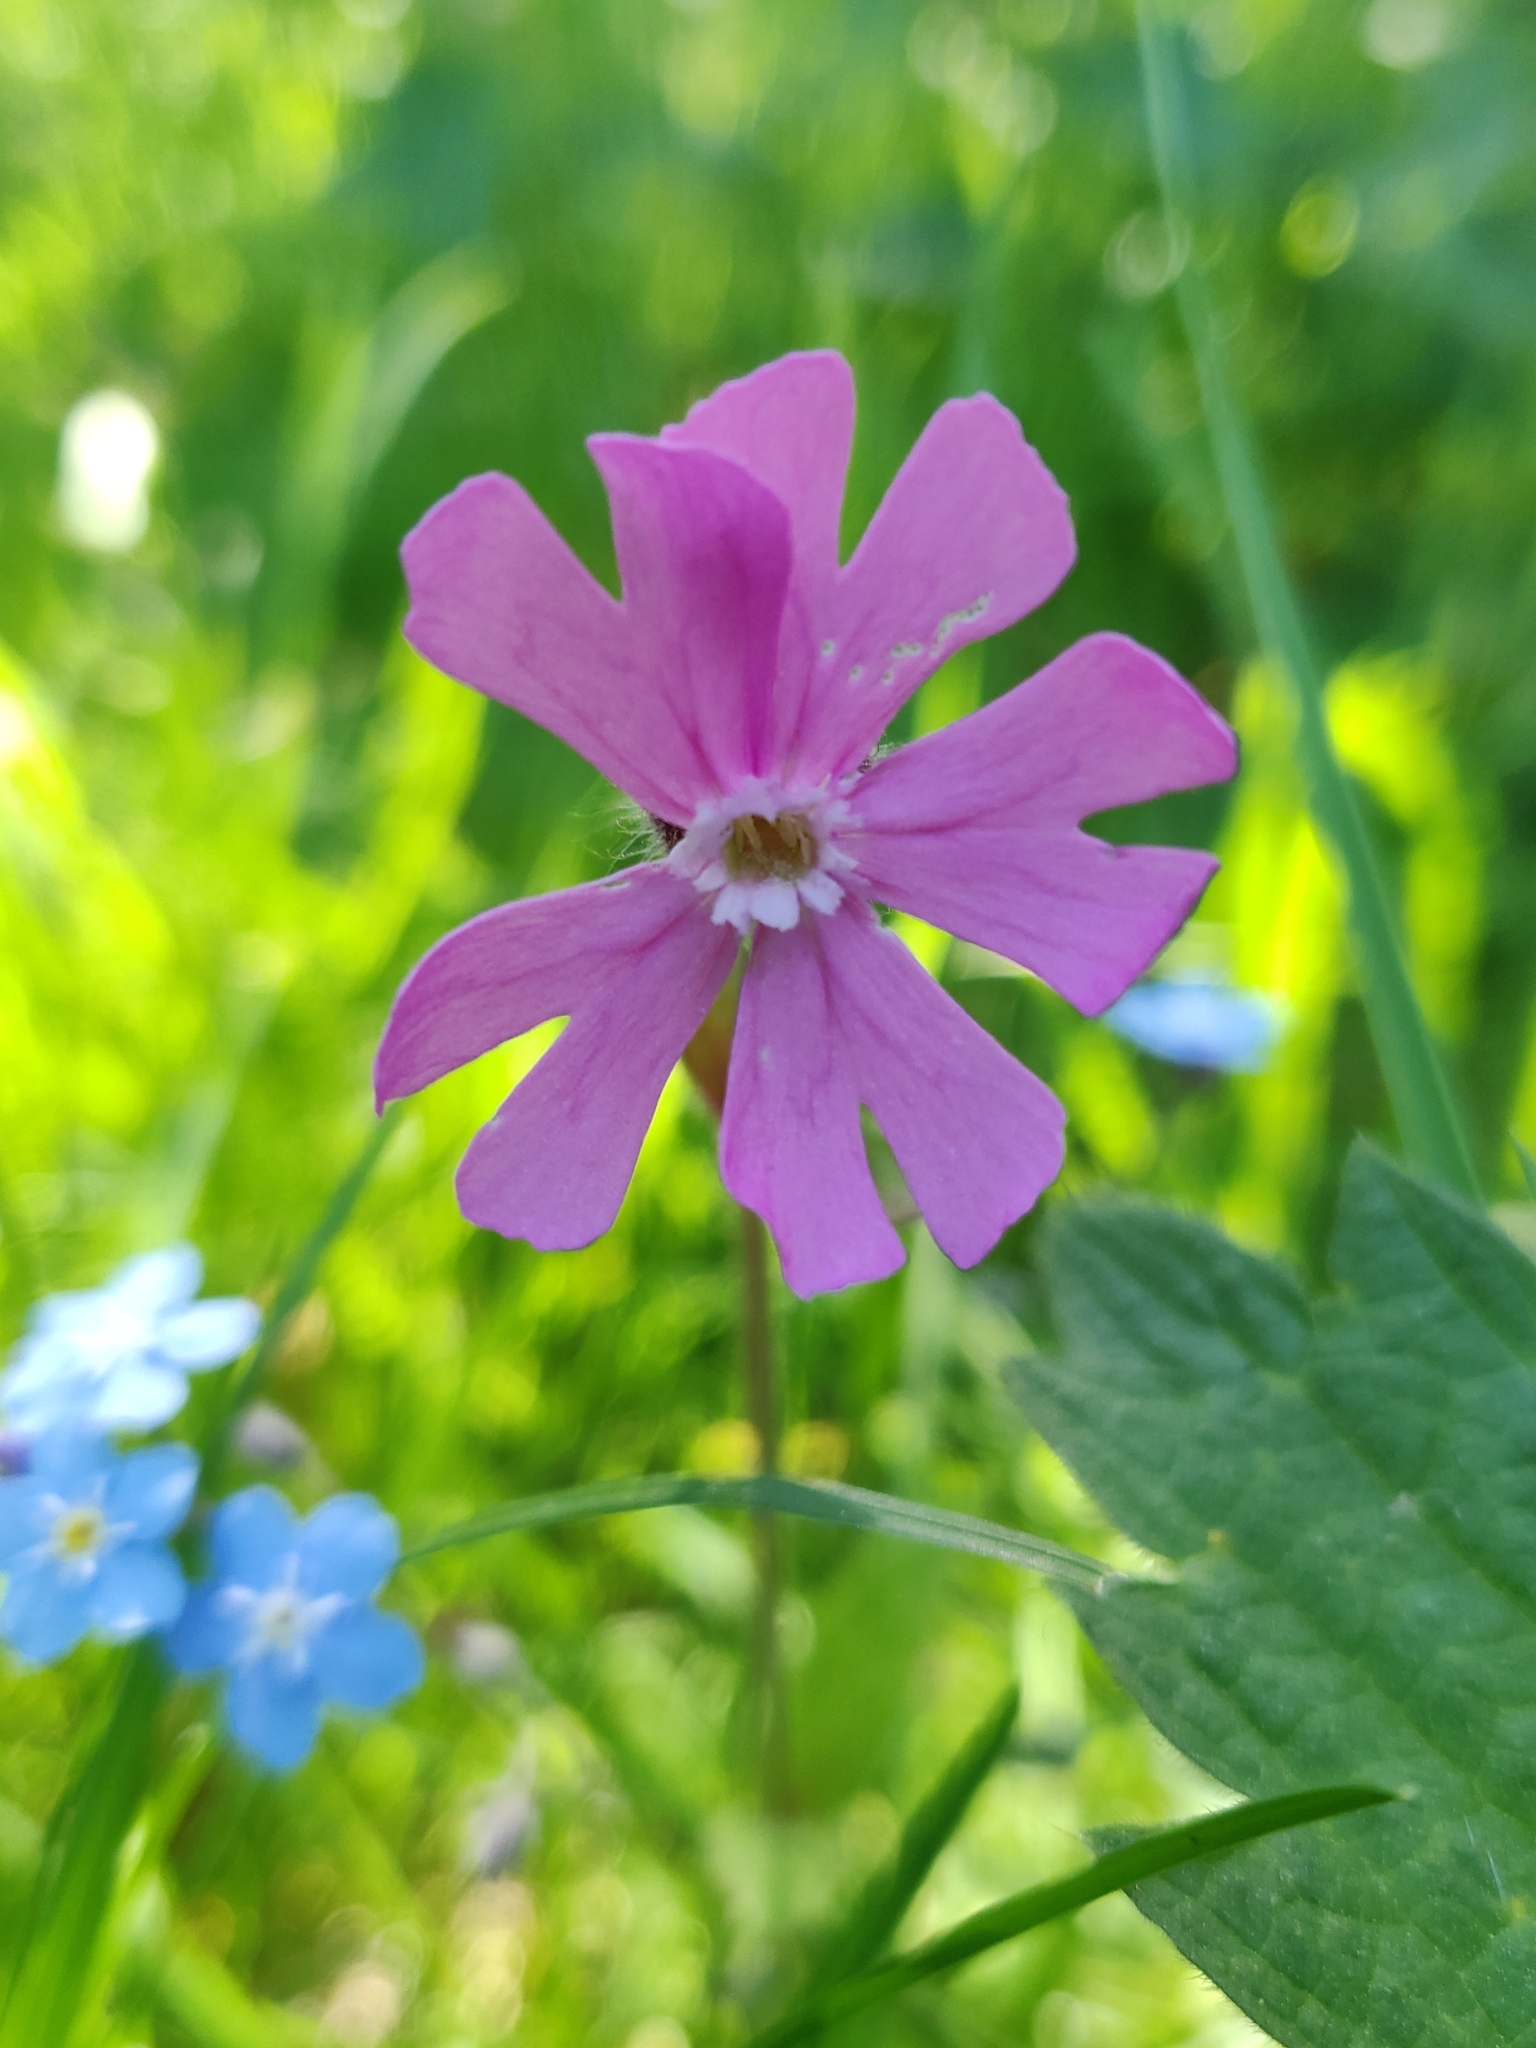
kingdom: Plantae
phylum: Tracheophyta
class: Magnoliopsida
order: Caryophyllales
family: Caryophyllaceae
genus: Silene
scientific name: Silene dioica
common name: Red campion
